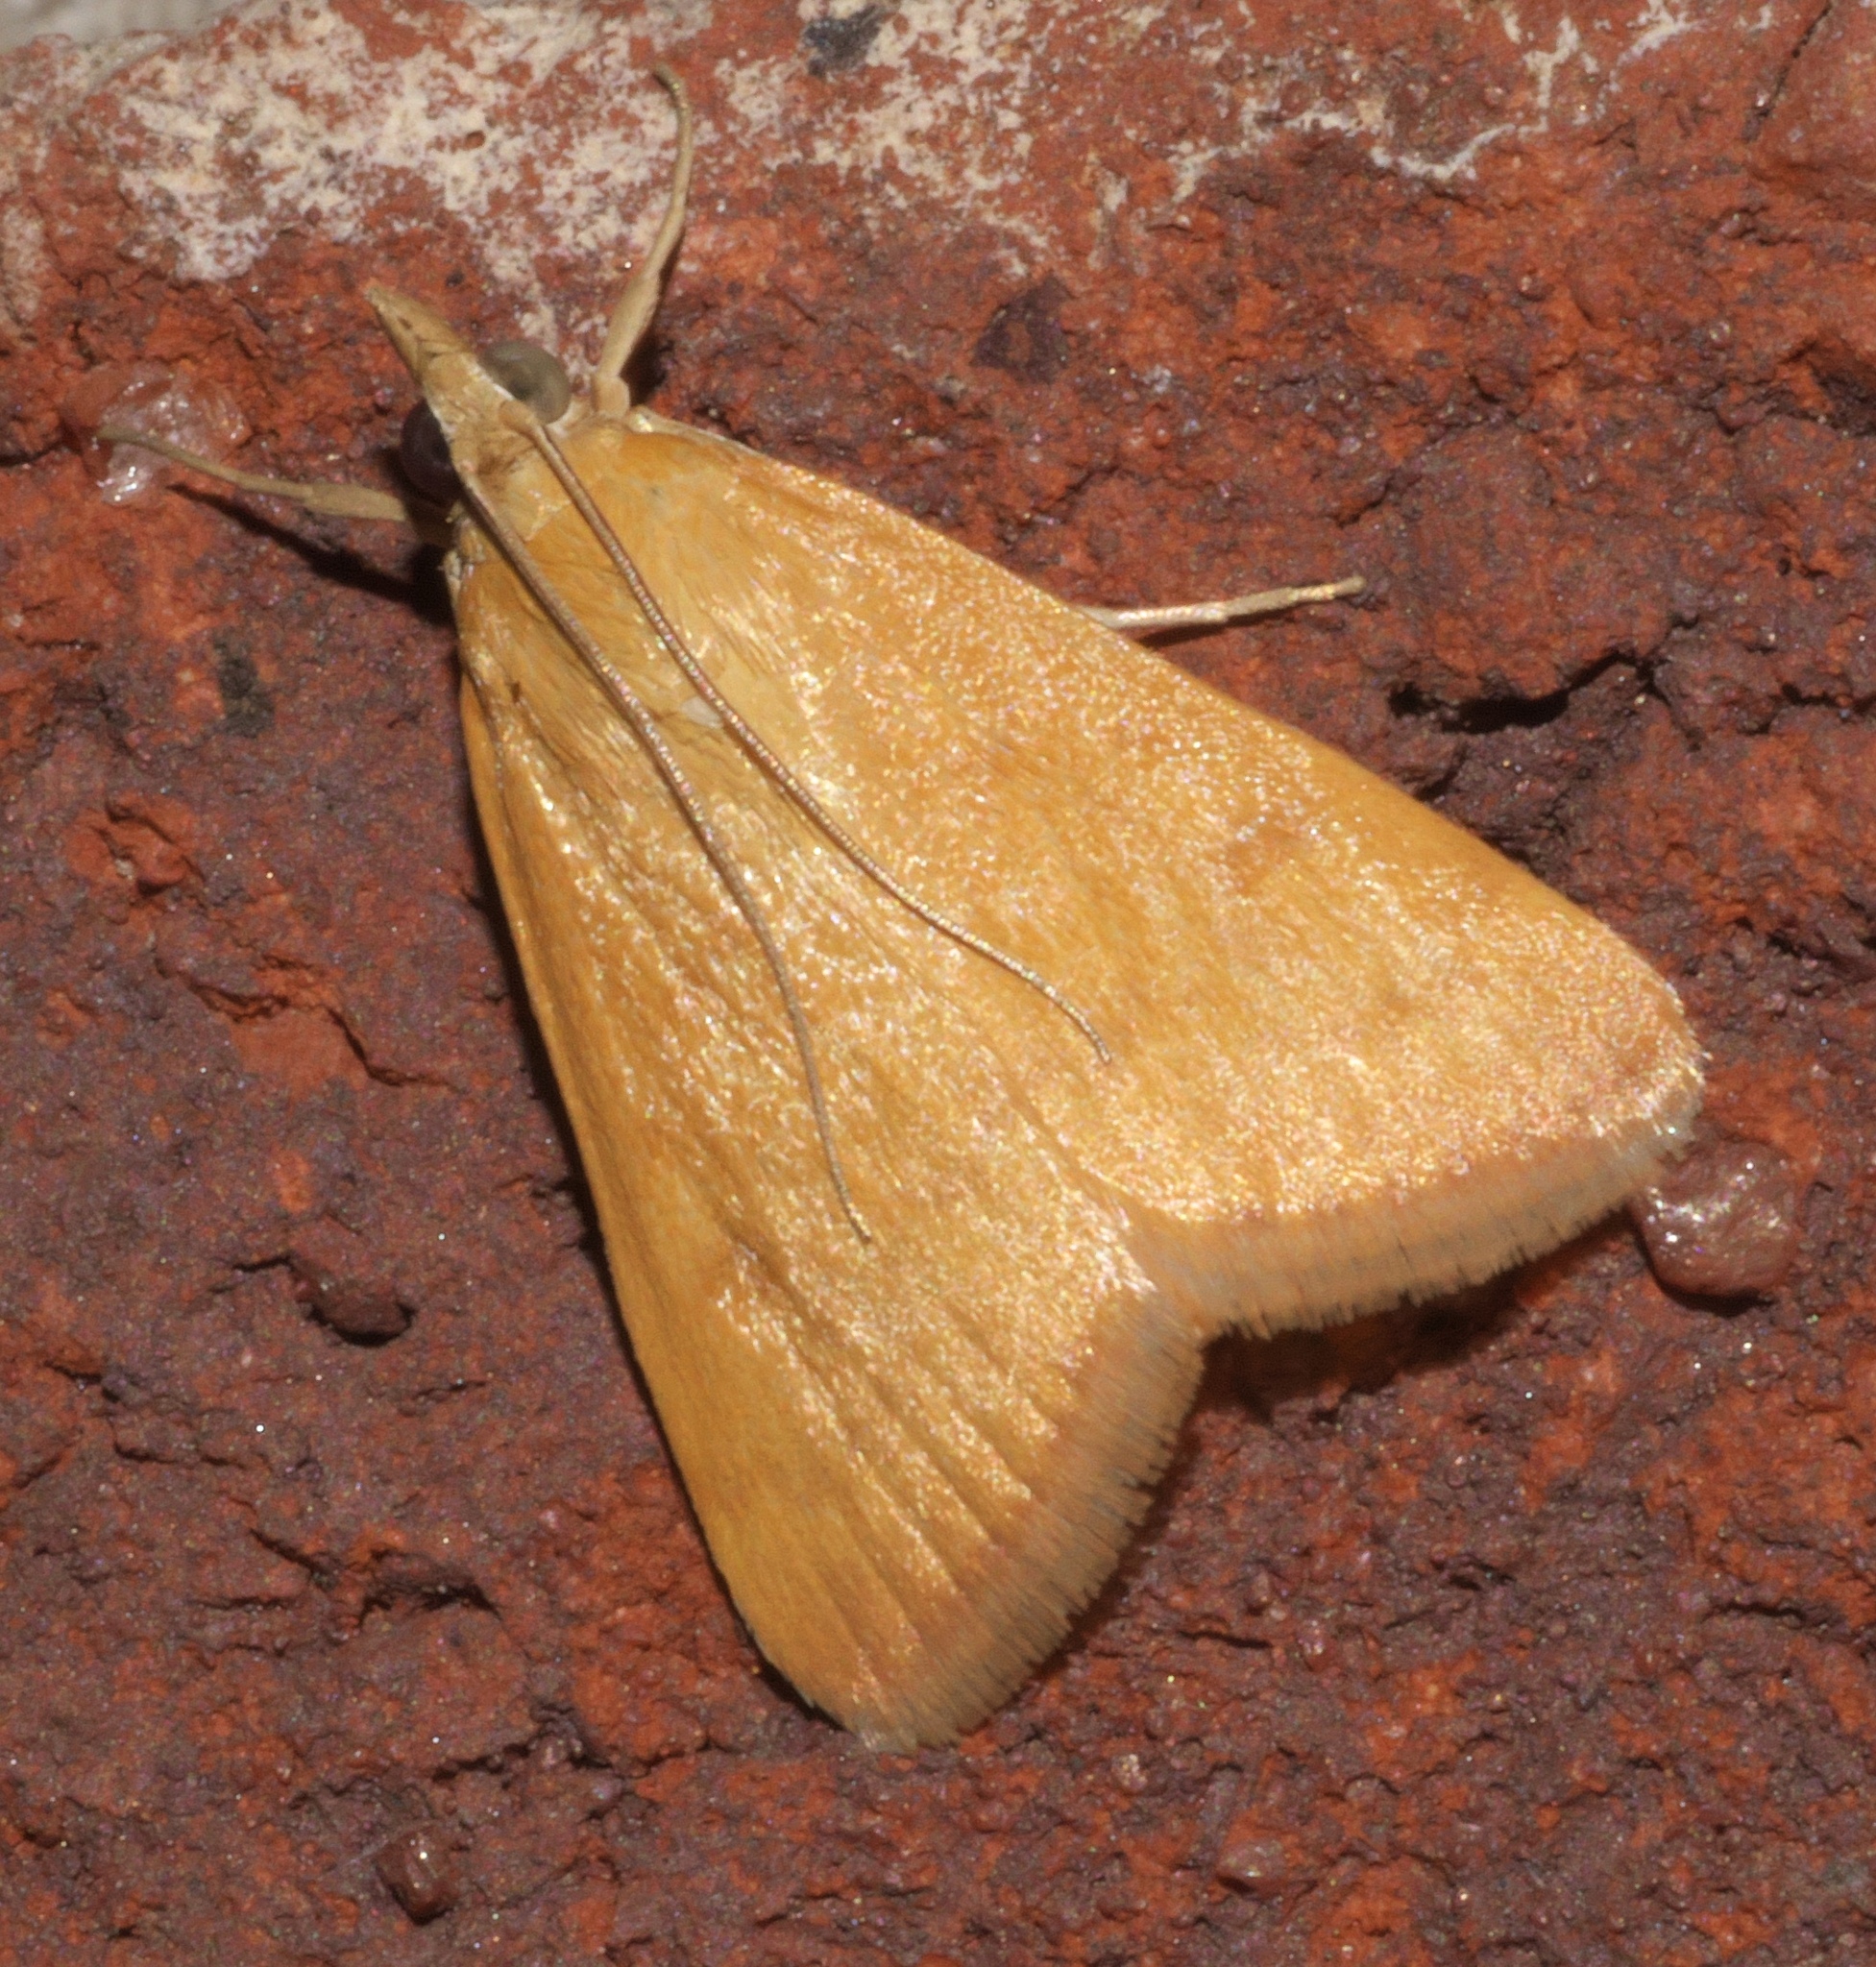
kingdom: Animalia
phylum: Arthropoda
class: Insecta
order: Lepidoptera
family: Crambidae
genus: Achyra
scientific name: Achyra rantalis
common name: Garden webworm
